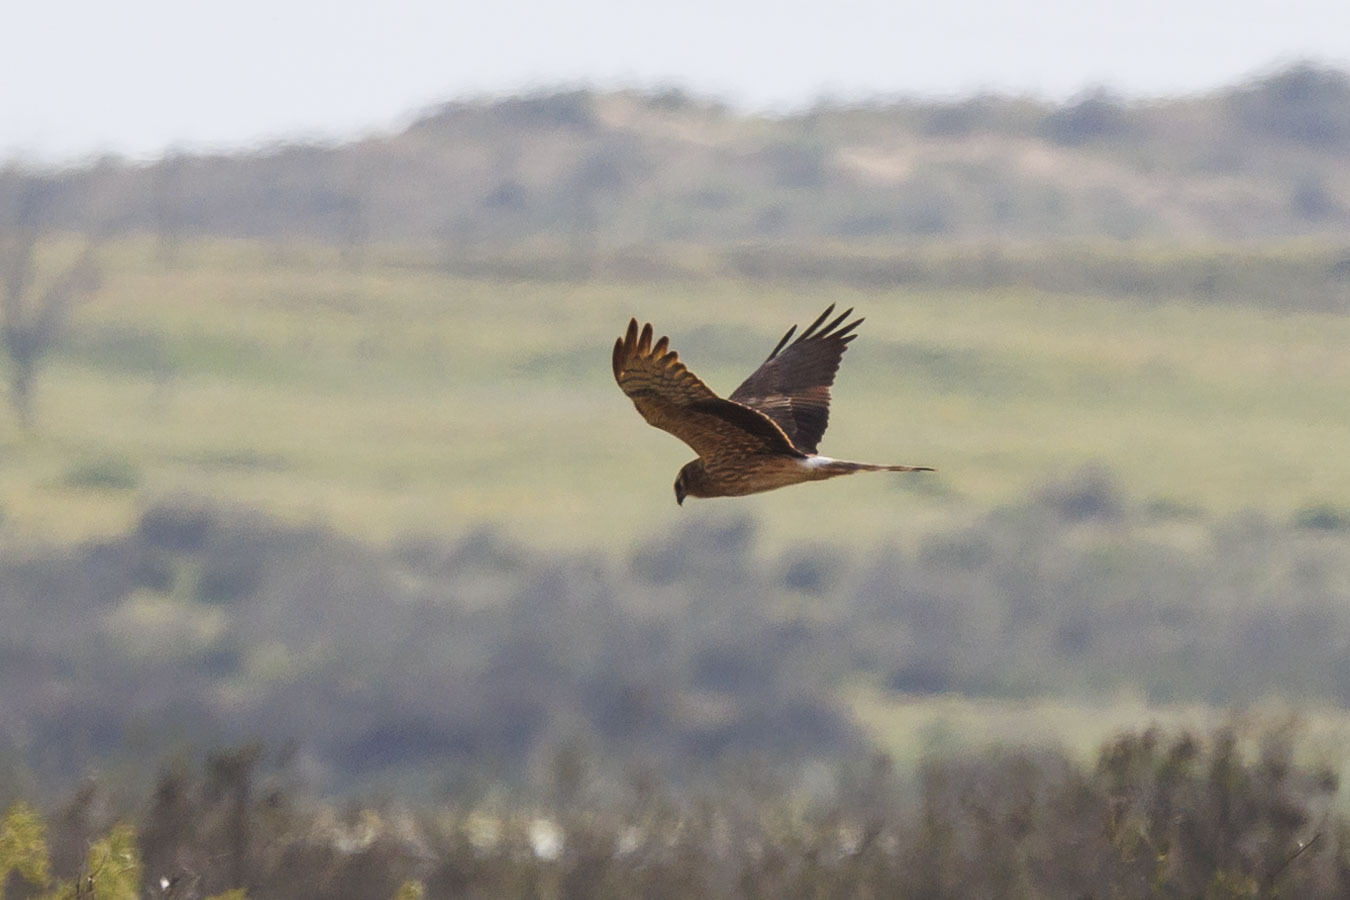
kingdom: Animalia
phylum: Chordata
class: Aves
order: Accipitriformes
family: Accipitridae
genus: Circus
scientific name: Circus pygargus
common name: Montagu's harrier
